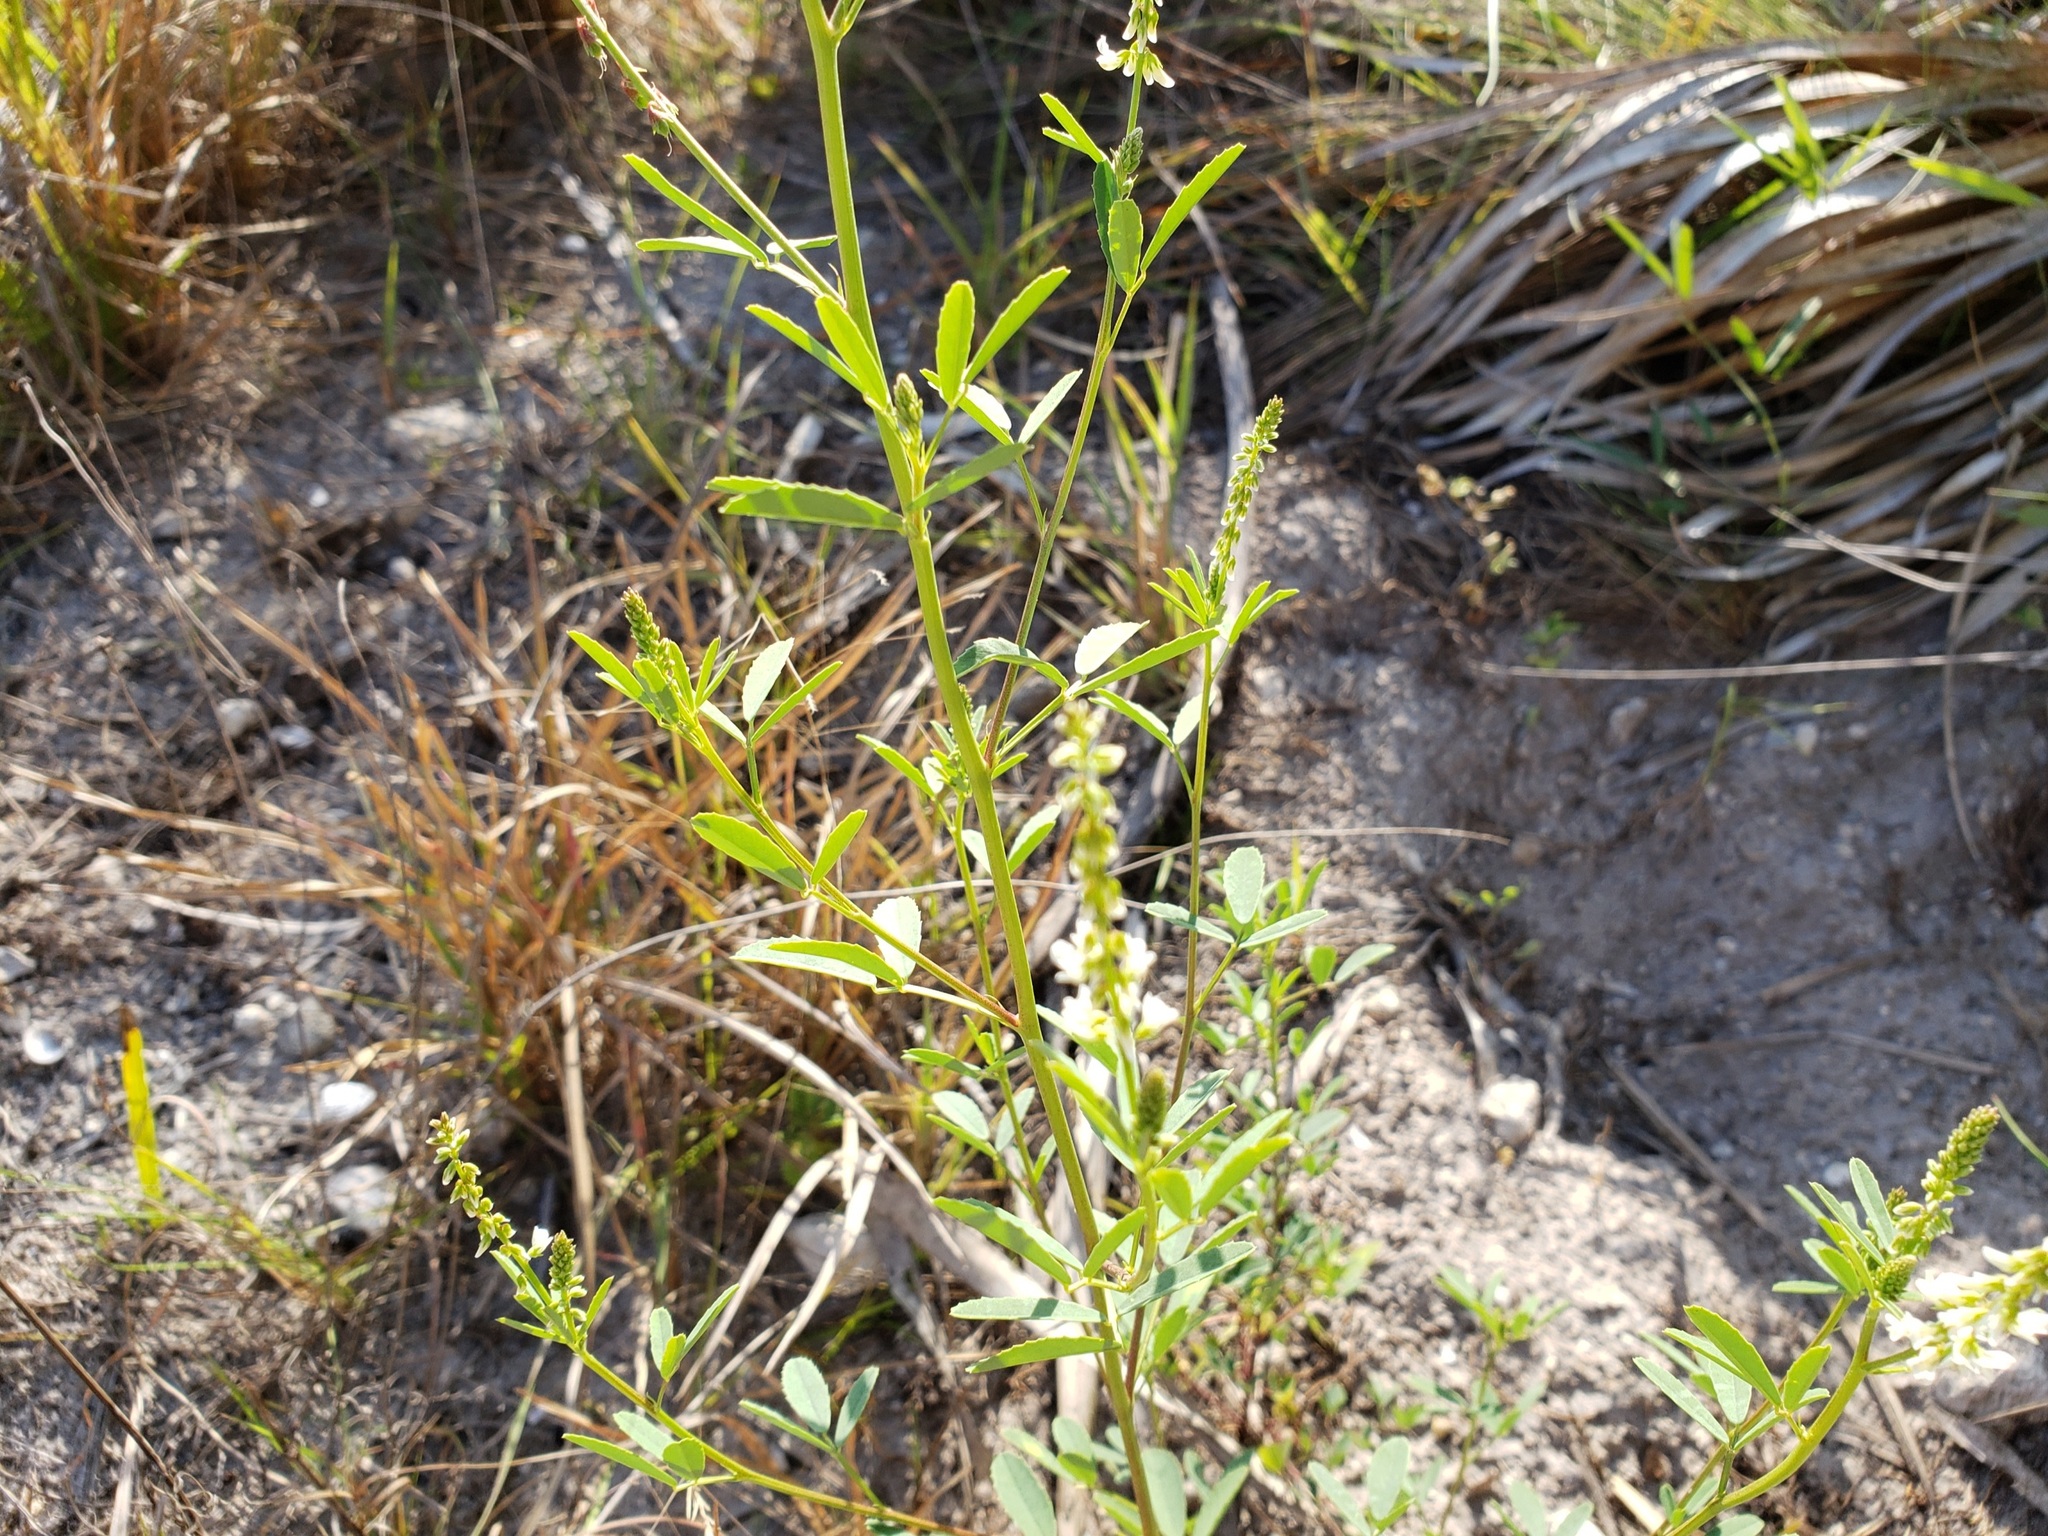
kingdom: Plantae
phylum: Tracheophyta
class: Magnoliopsida
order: Fabales
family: Fabaceae
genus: Melilotus
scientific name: Melilotus albus
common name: White melilot
